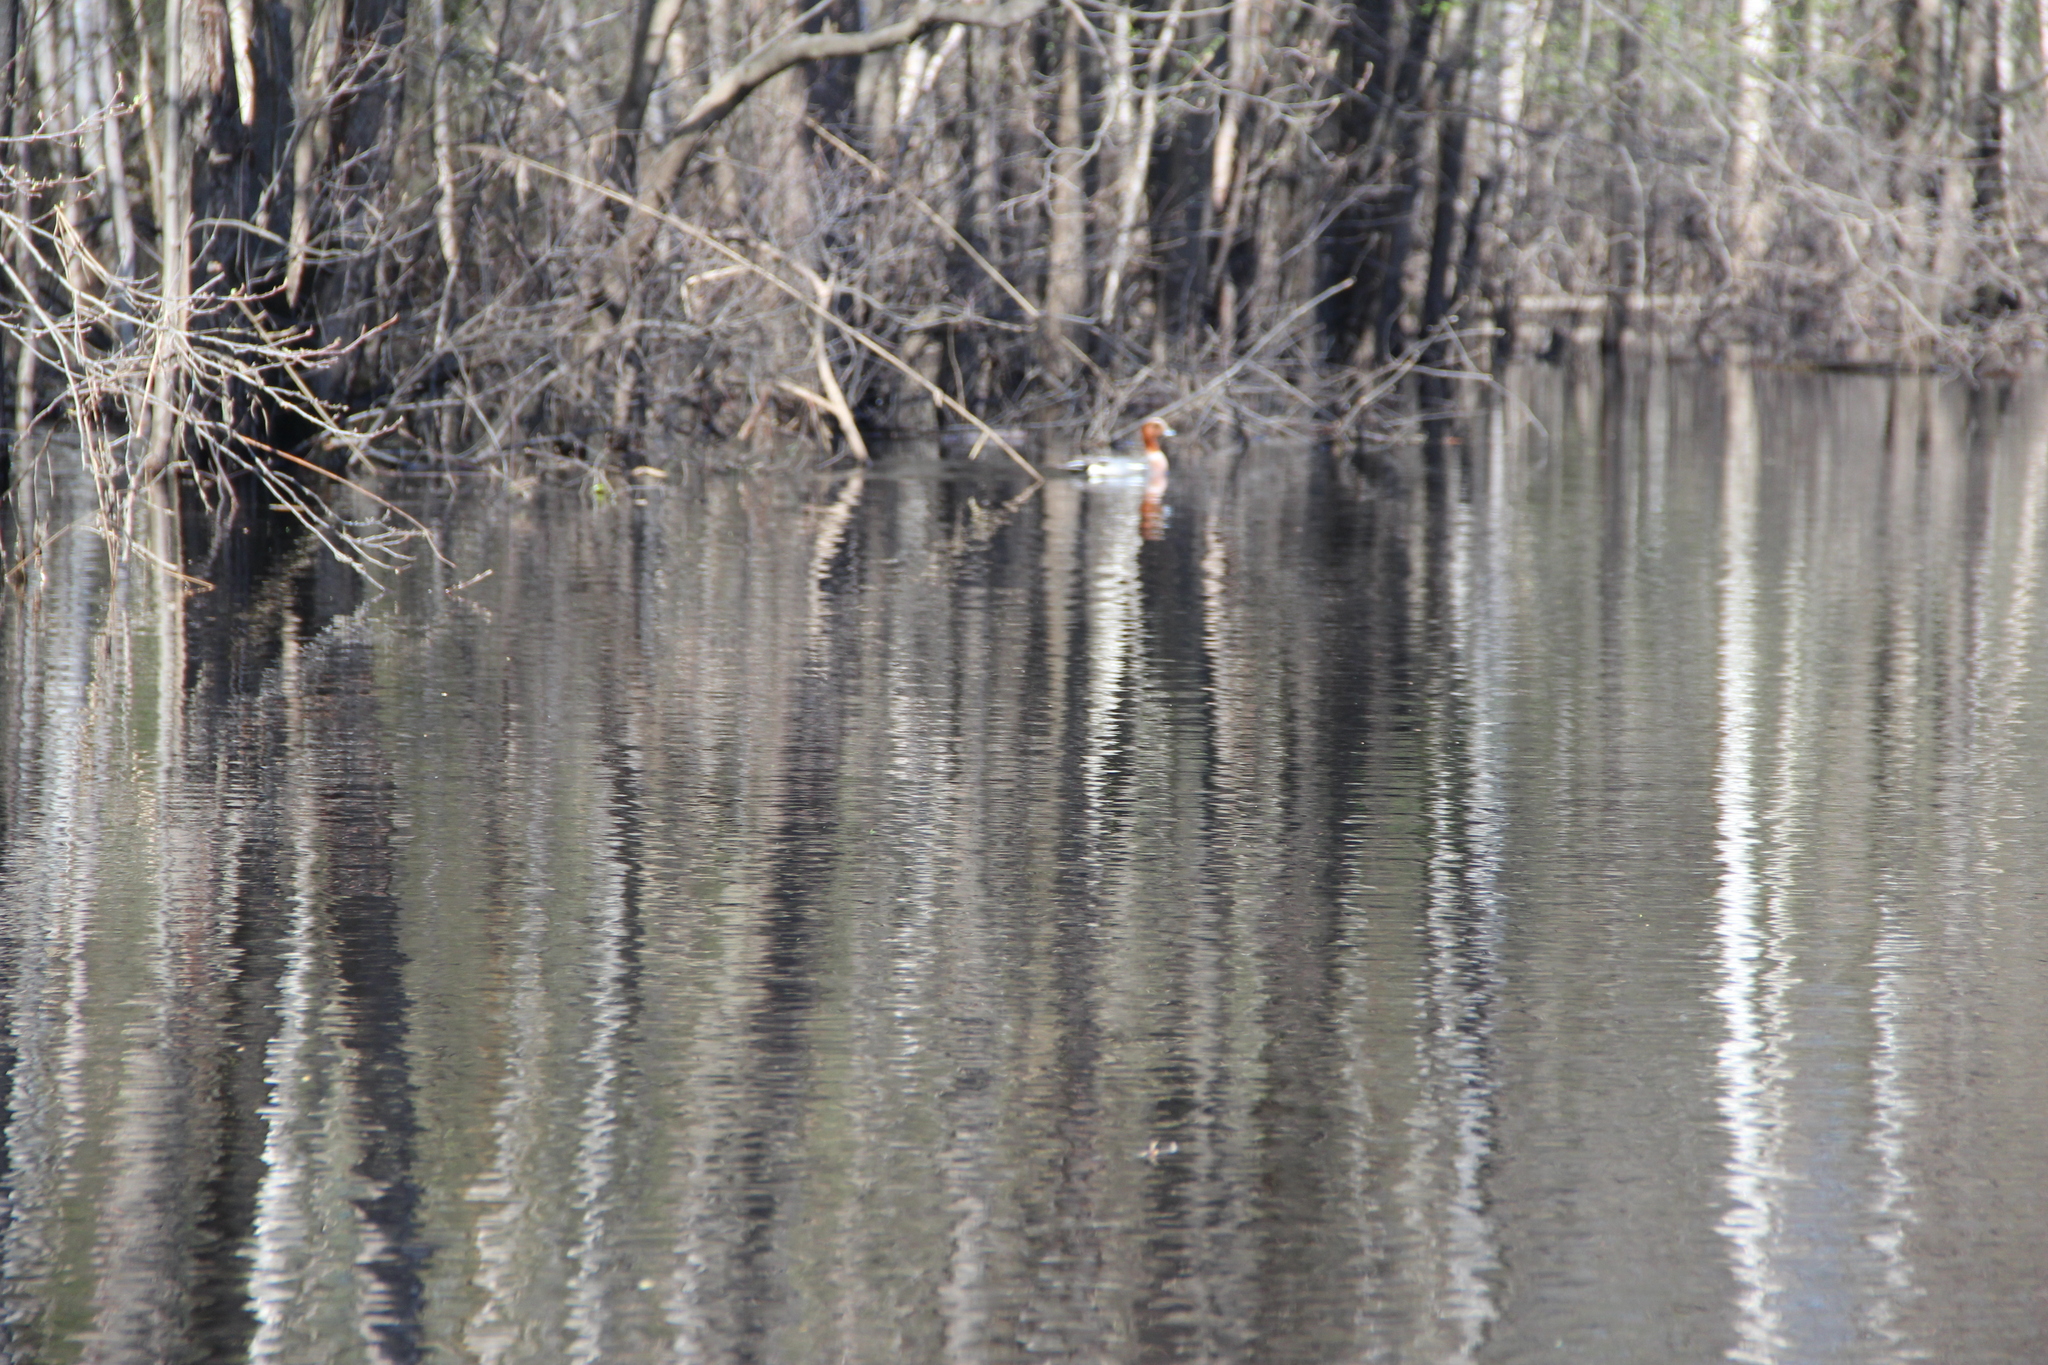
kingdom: Animalia
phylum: Chordata
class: Aves
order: Anseriformes
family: Anatidae
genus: Mareca
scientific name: Mareca penelope
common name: Eurasian wigeon
